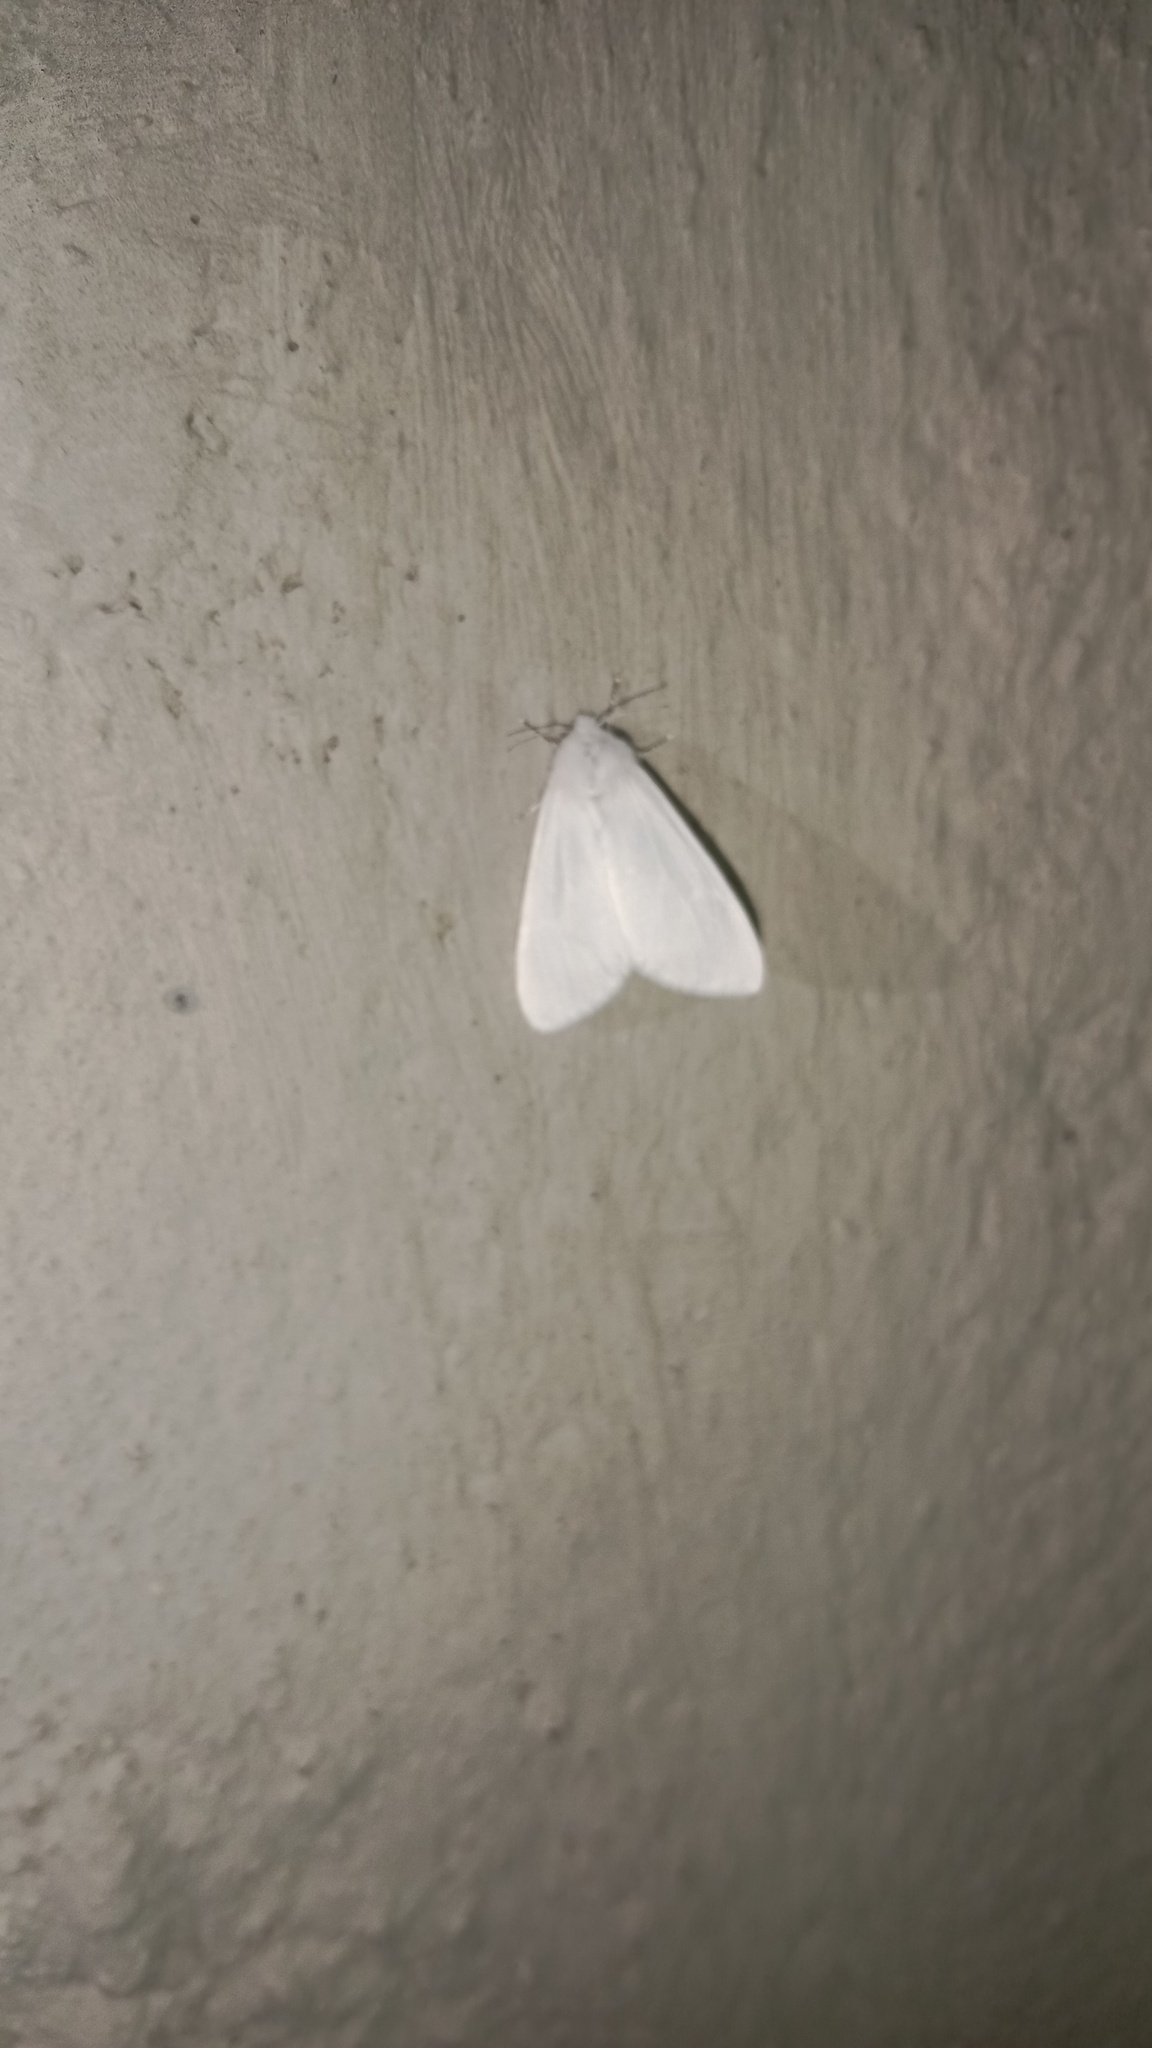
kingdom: Animalia
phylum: Arthropoda
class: Insecta
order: Lepidoptera
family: Erebidae
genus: Hyphantria
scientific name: Hyphantria cunea
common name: American white moth
